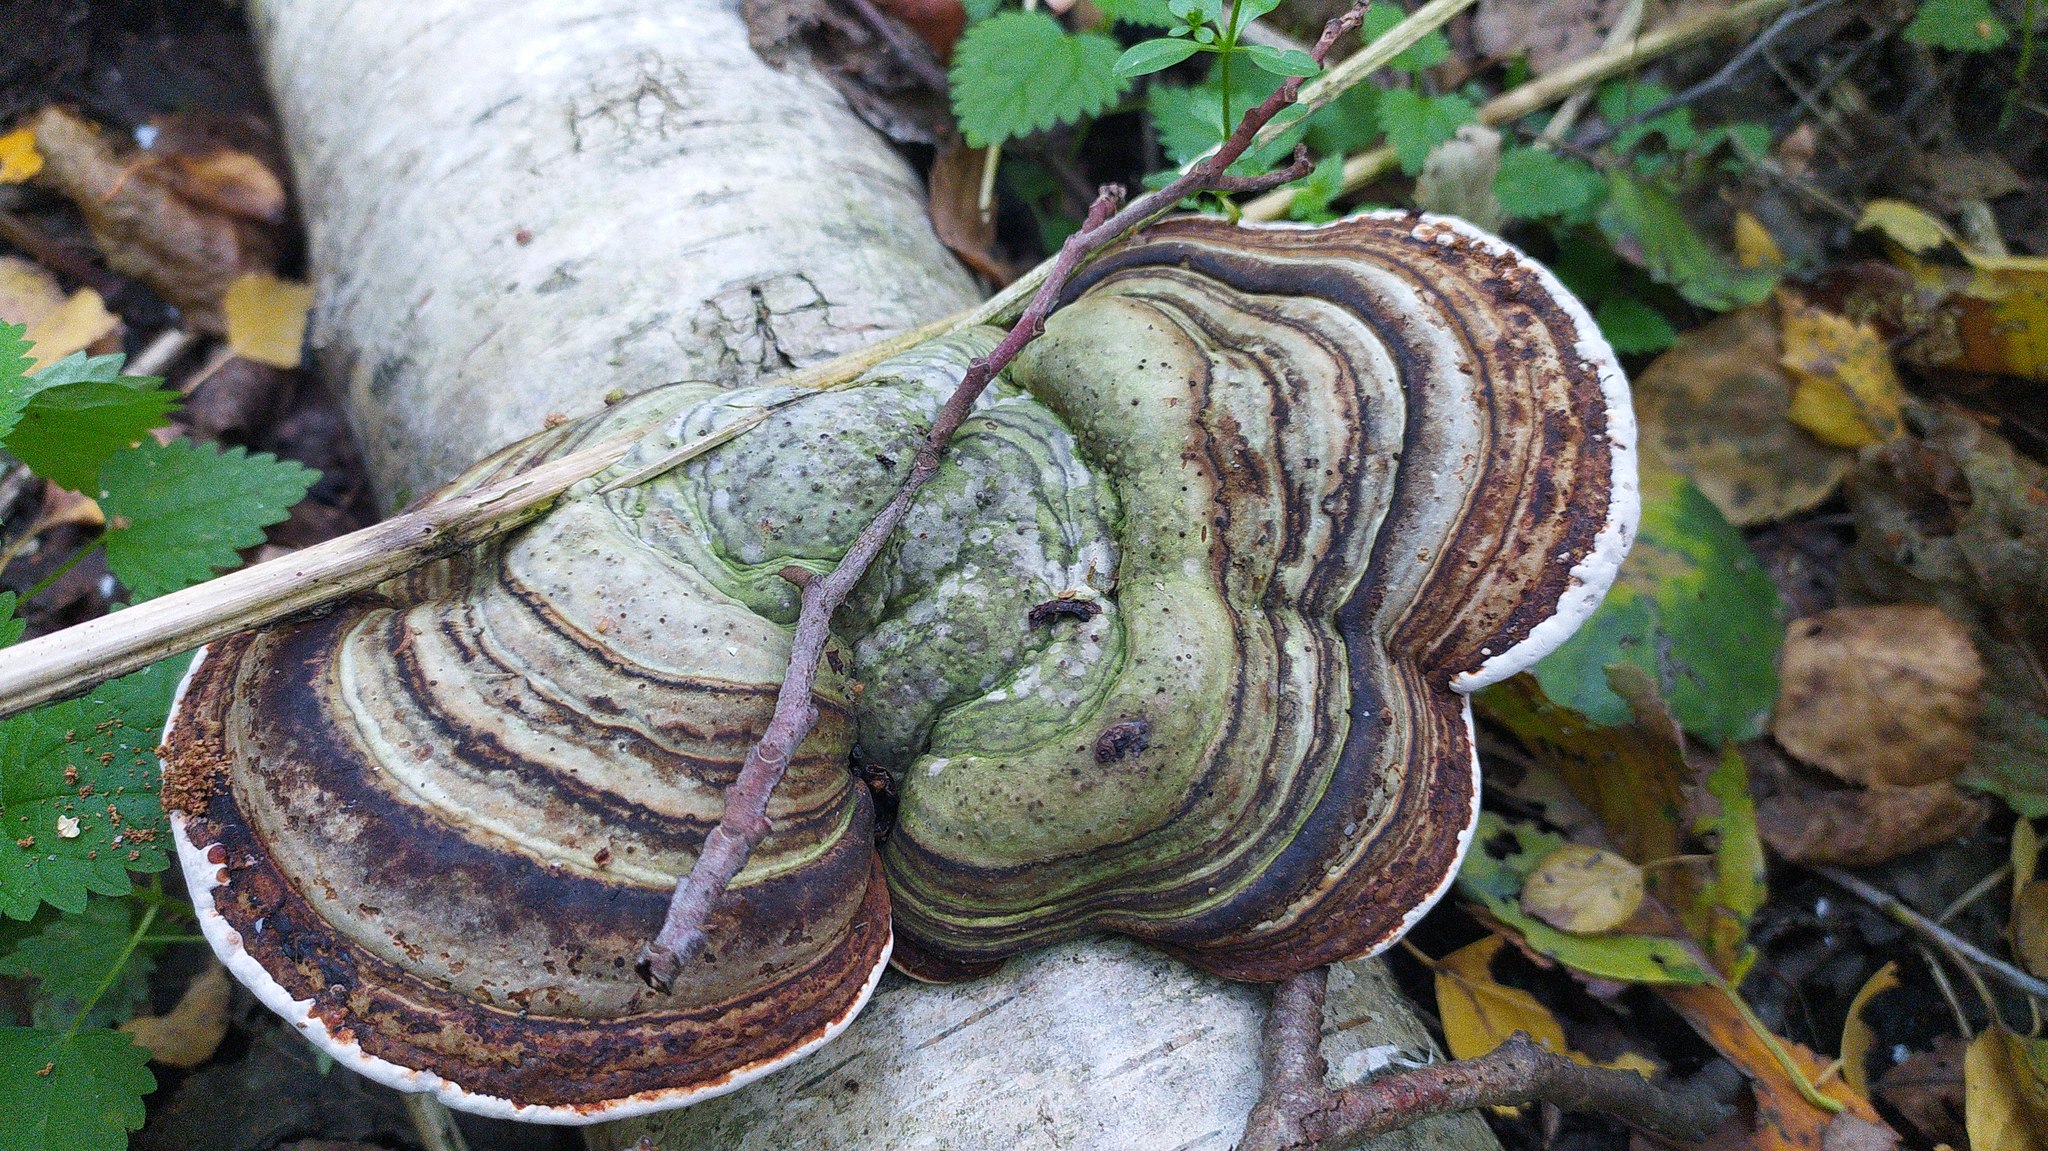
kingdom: Fungi
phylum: Basidiomycota
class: Agaricomycetes
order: Polyporales
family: Polyporaceae
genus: Fomes
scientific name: Fomes fomentarius
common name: Hoof fungus
